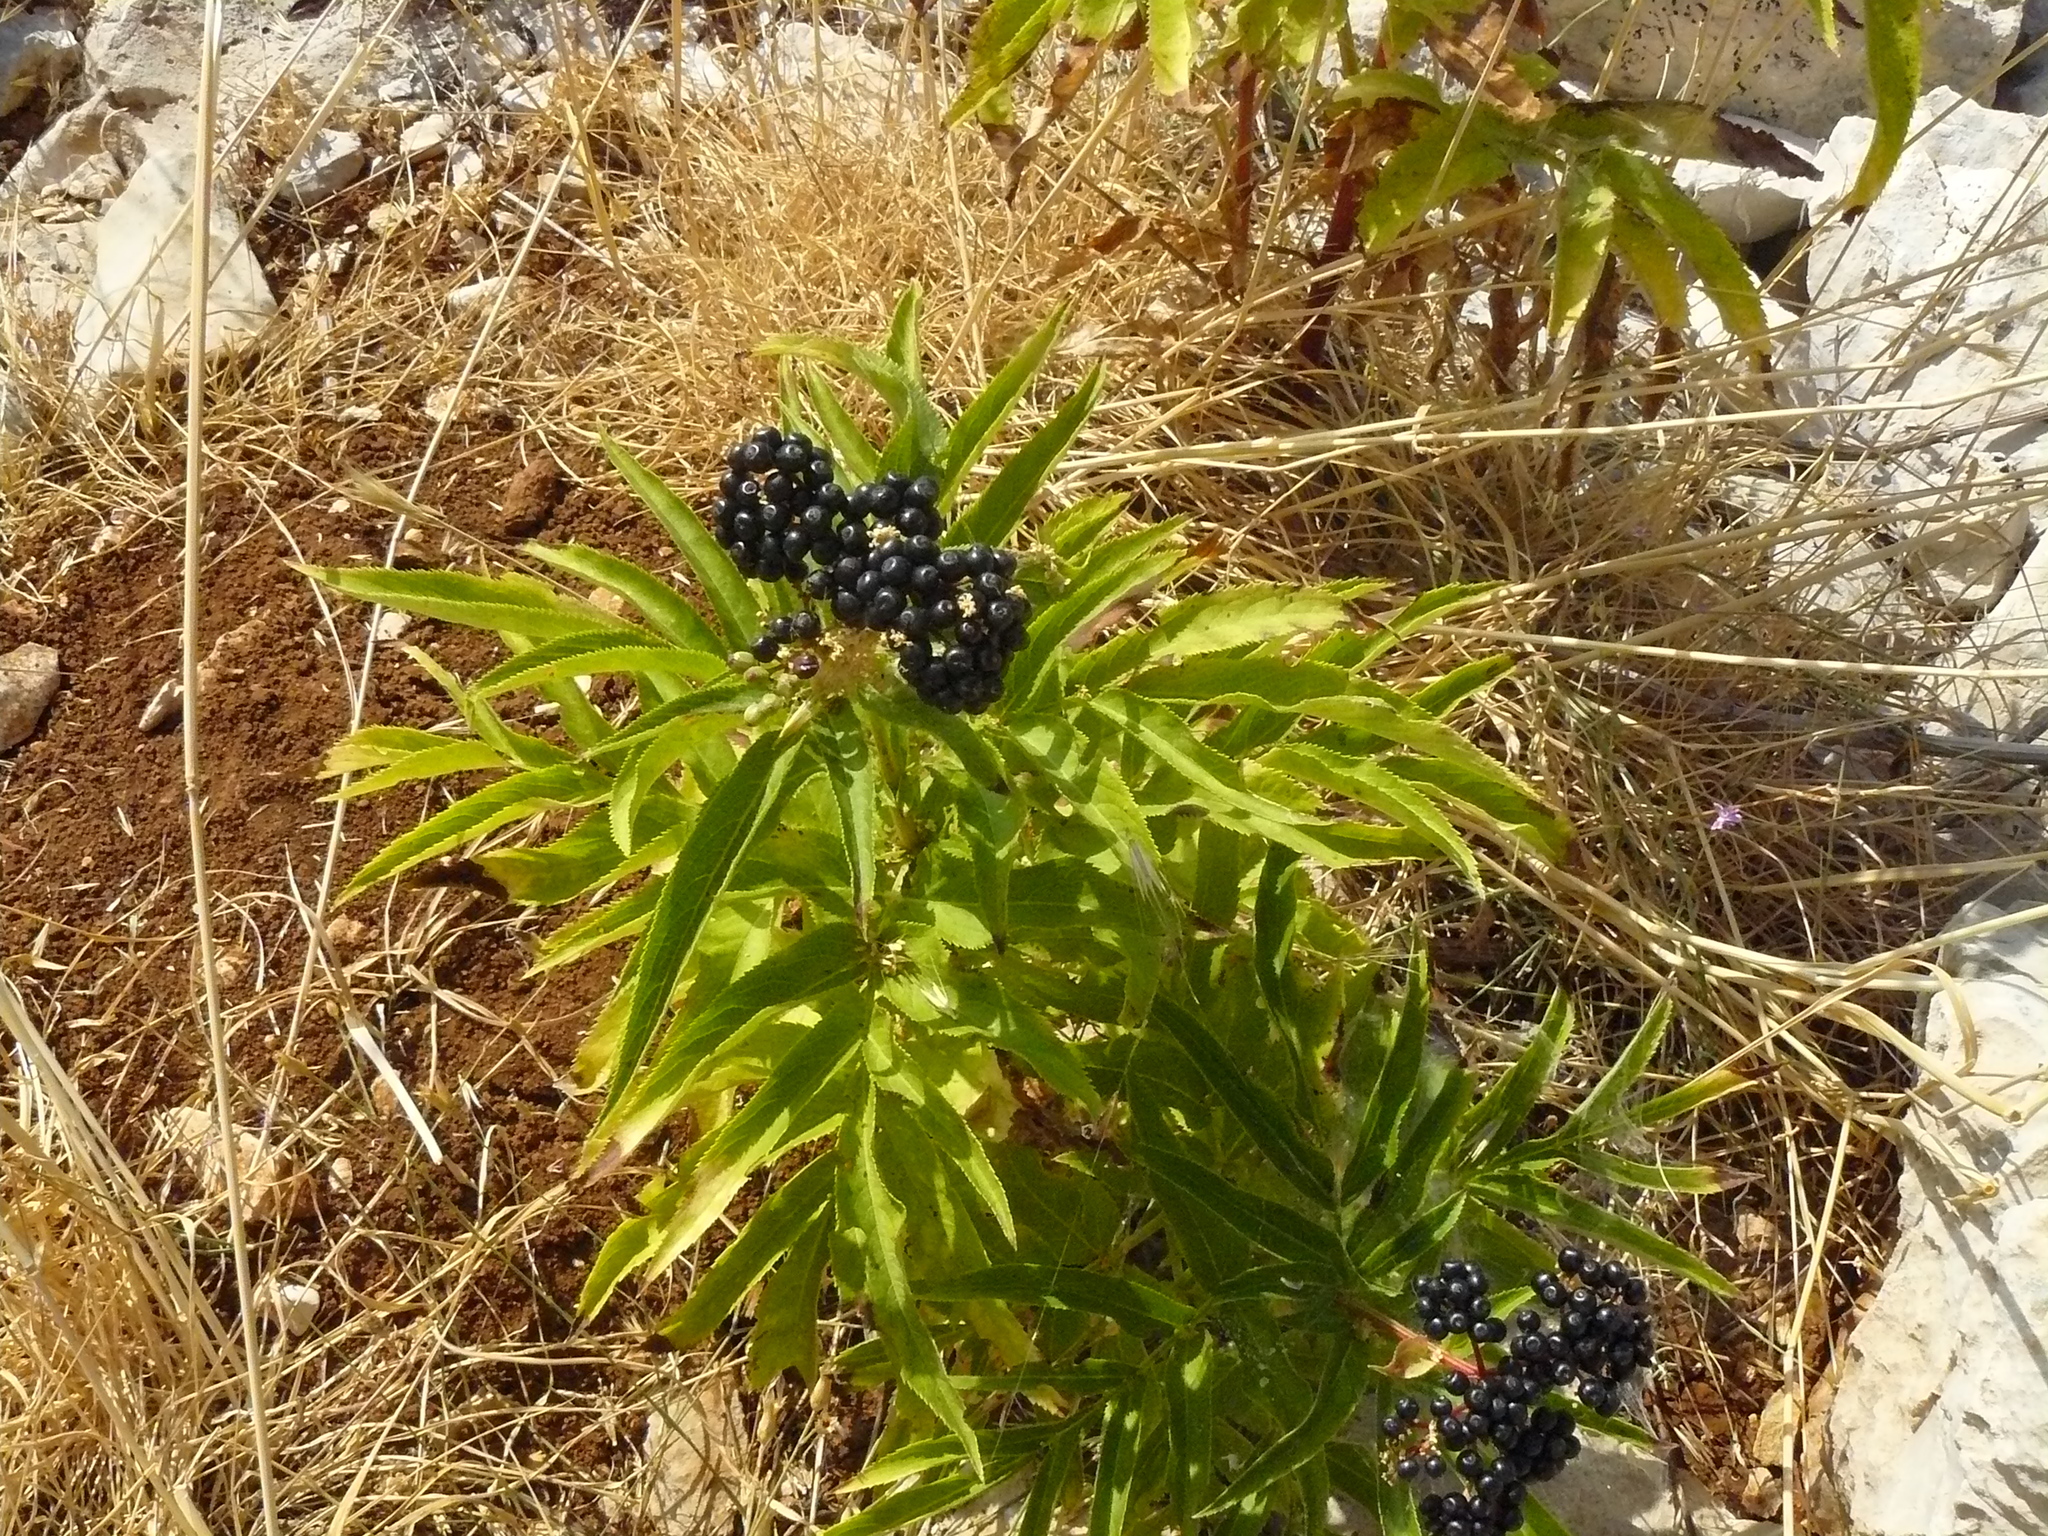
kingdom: Plantae
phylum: Tracheophyta
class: Magnoliopsida
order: Dipsacales
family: Viburnaceae
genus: Sambucus
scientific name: Sambucus ebulus
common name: Dwarf elder
